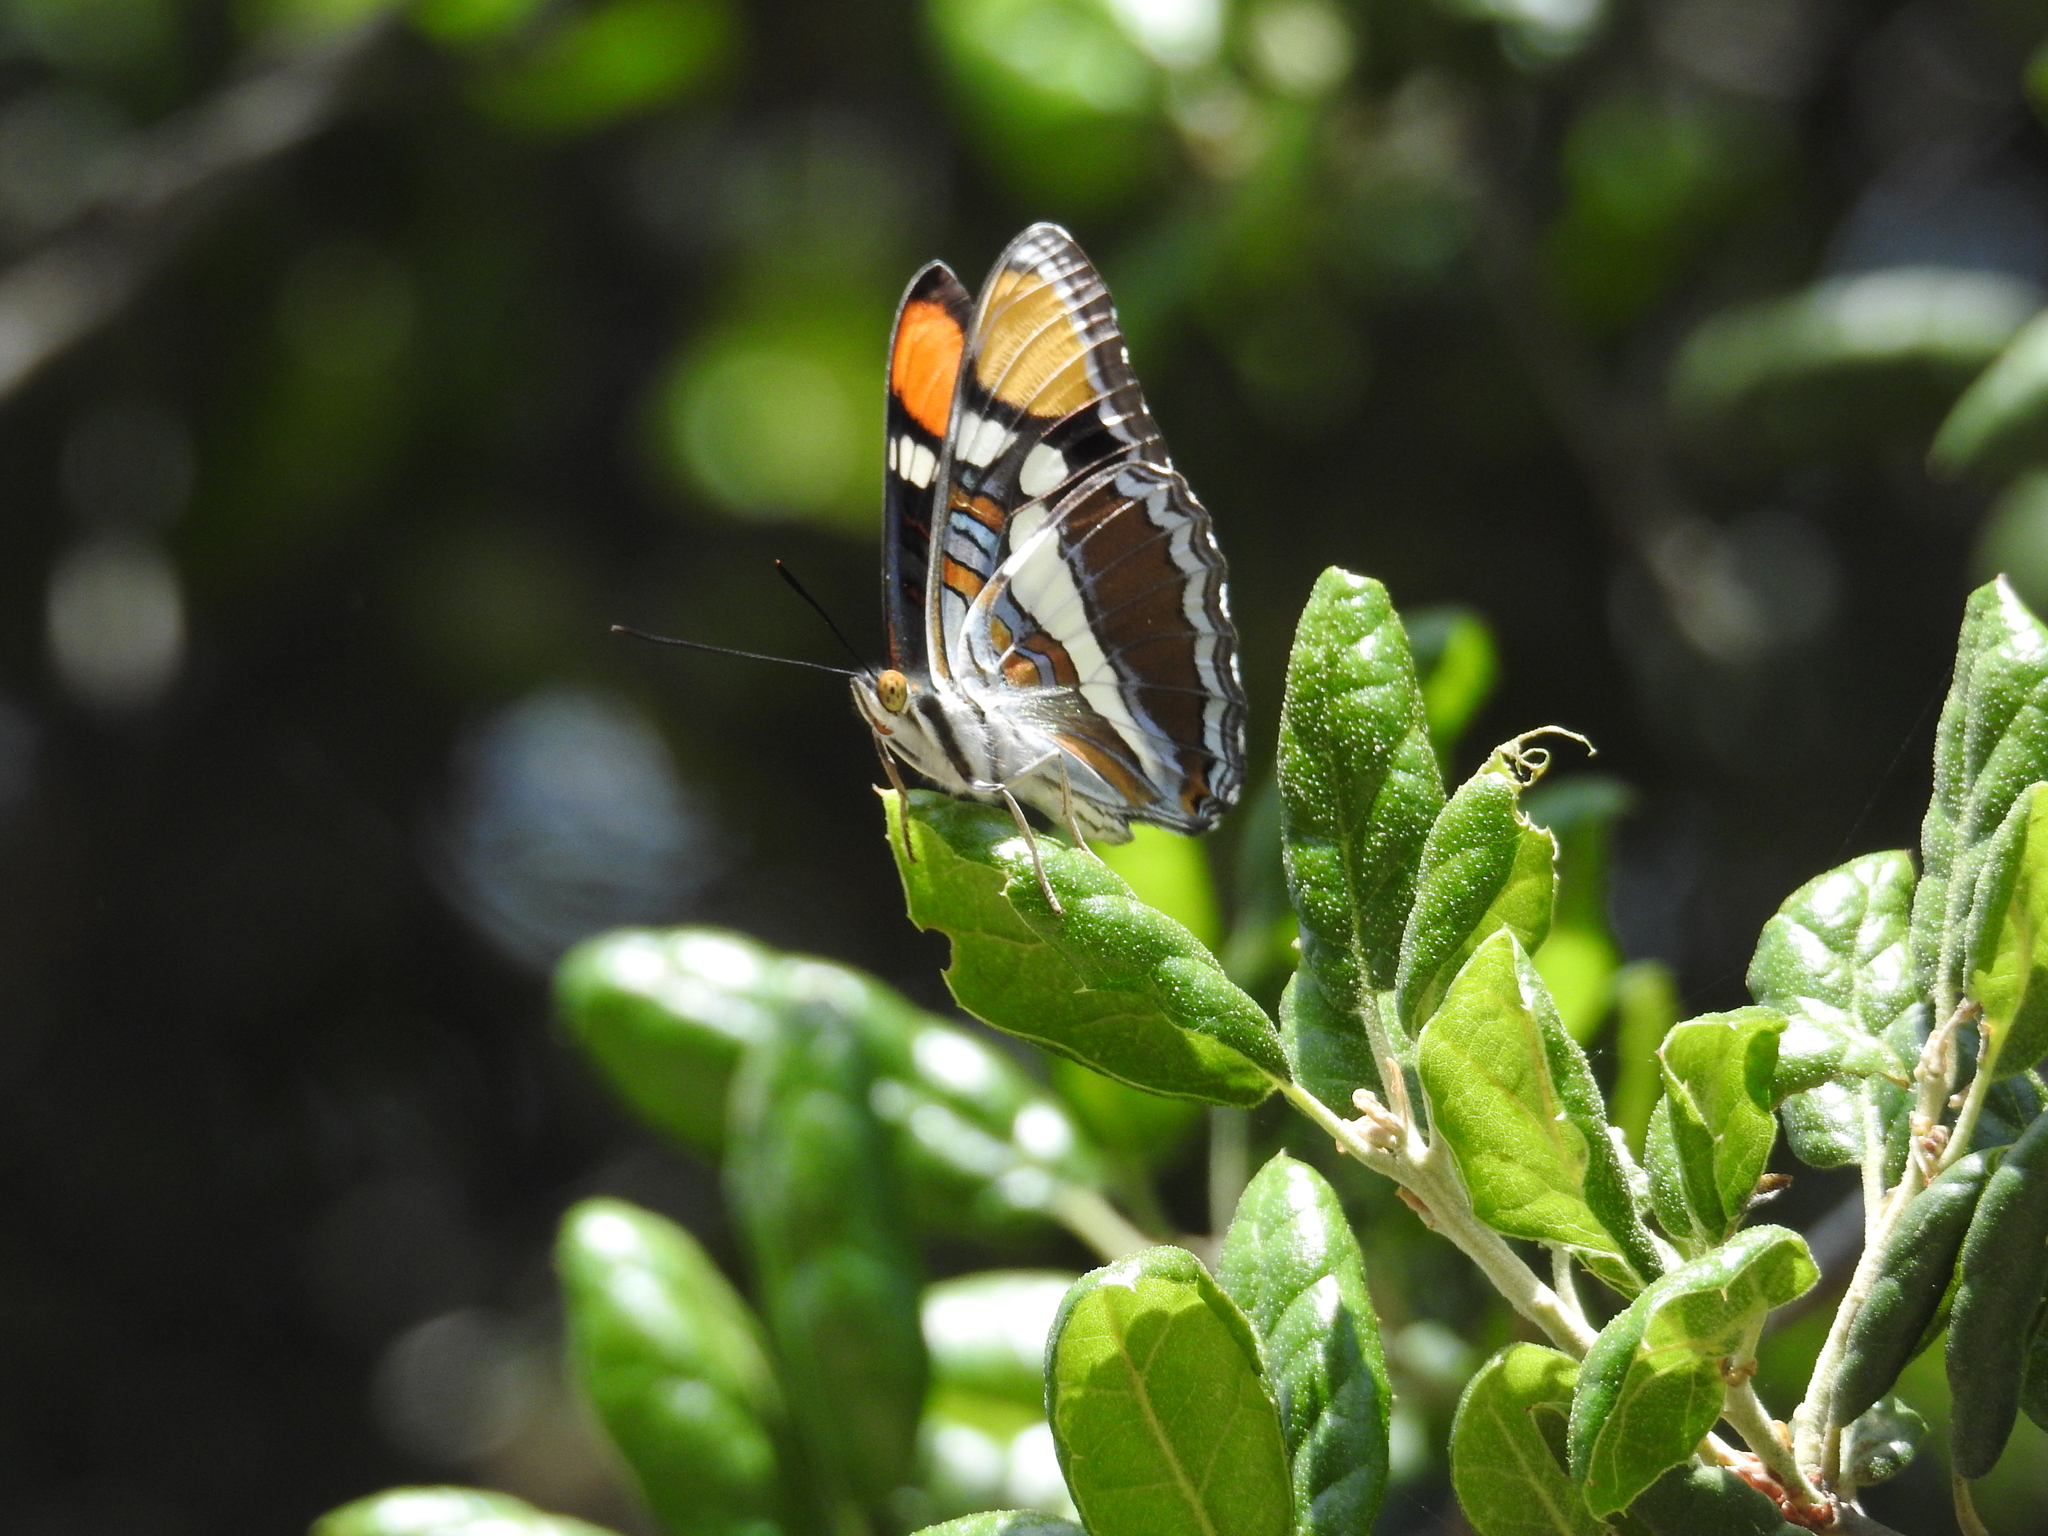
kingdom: Animalia
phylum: Arthropoda
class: Insecta
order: Lepidoptera
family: Nymphalidae
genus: Limenitis
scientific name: Limenitis bredowii
